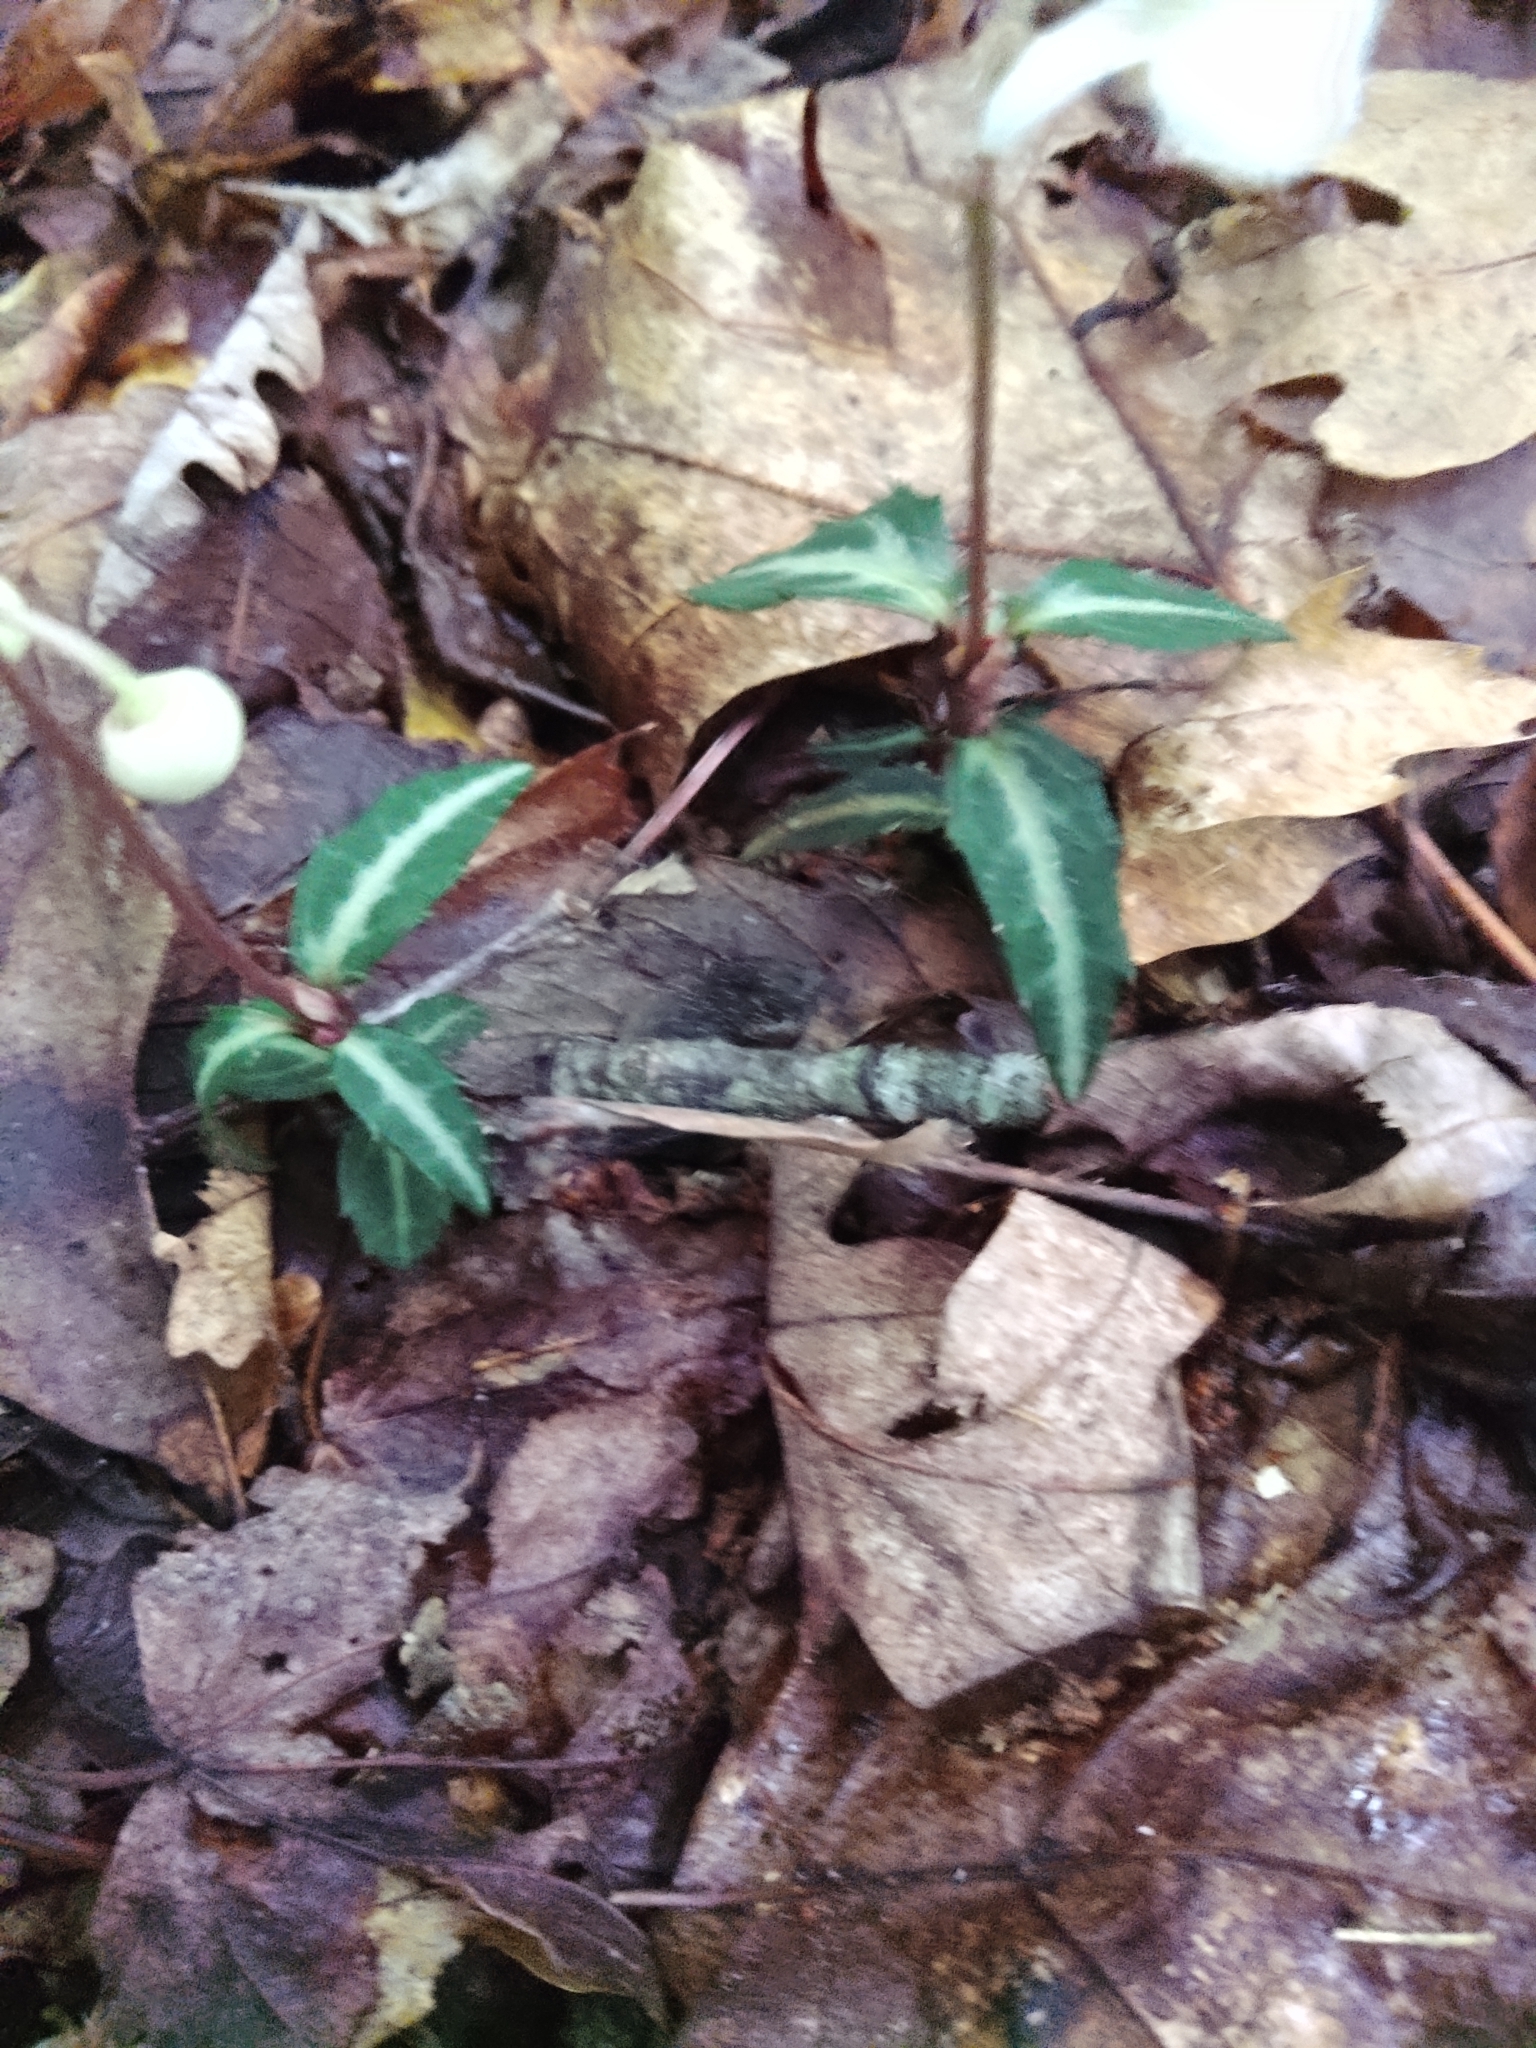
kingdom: Plantae
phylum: Tracheophyta
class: Magnoliopsida
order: Ericales
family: Ericaceae
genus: Chimaphila
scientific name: Chimaphila maculata
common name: Spotted pipsissewa
